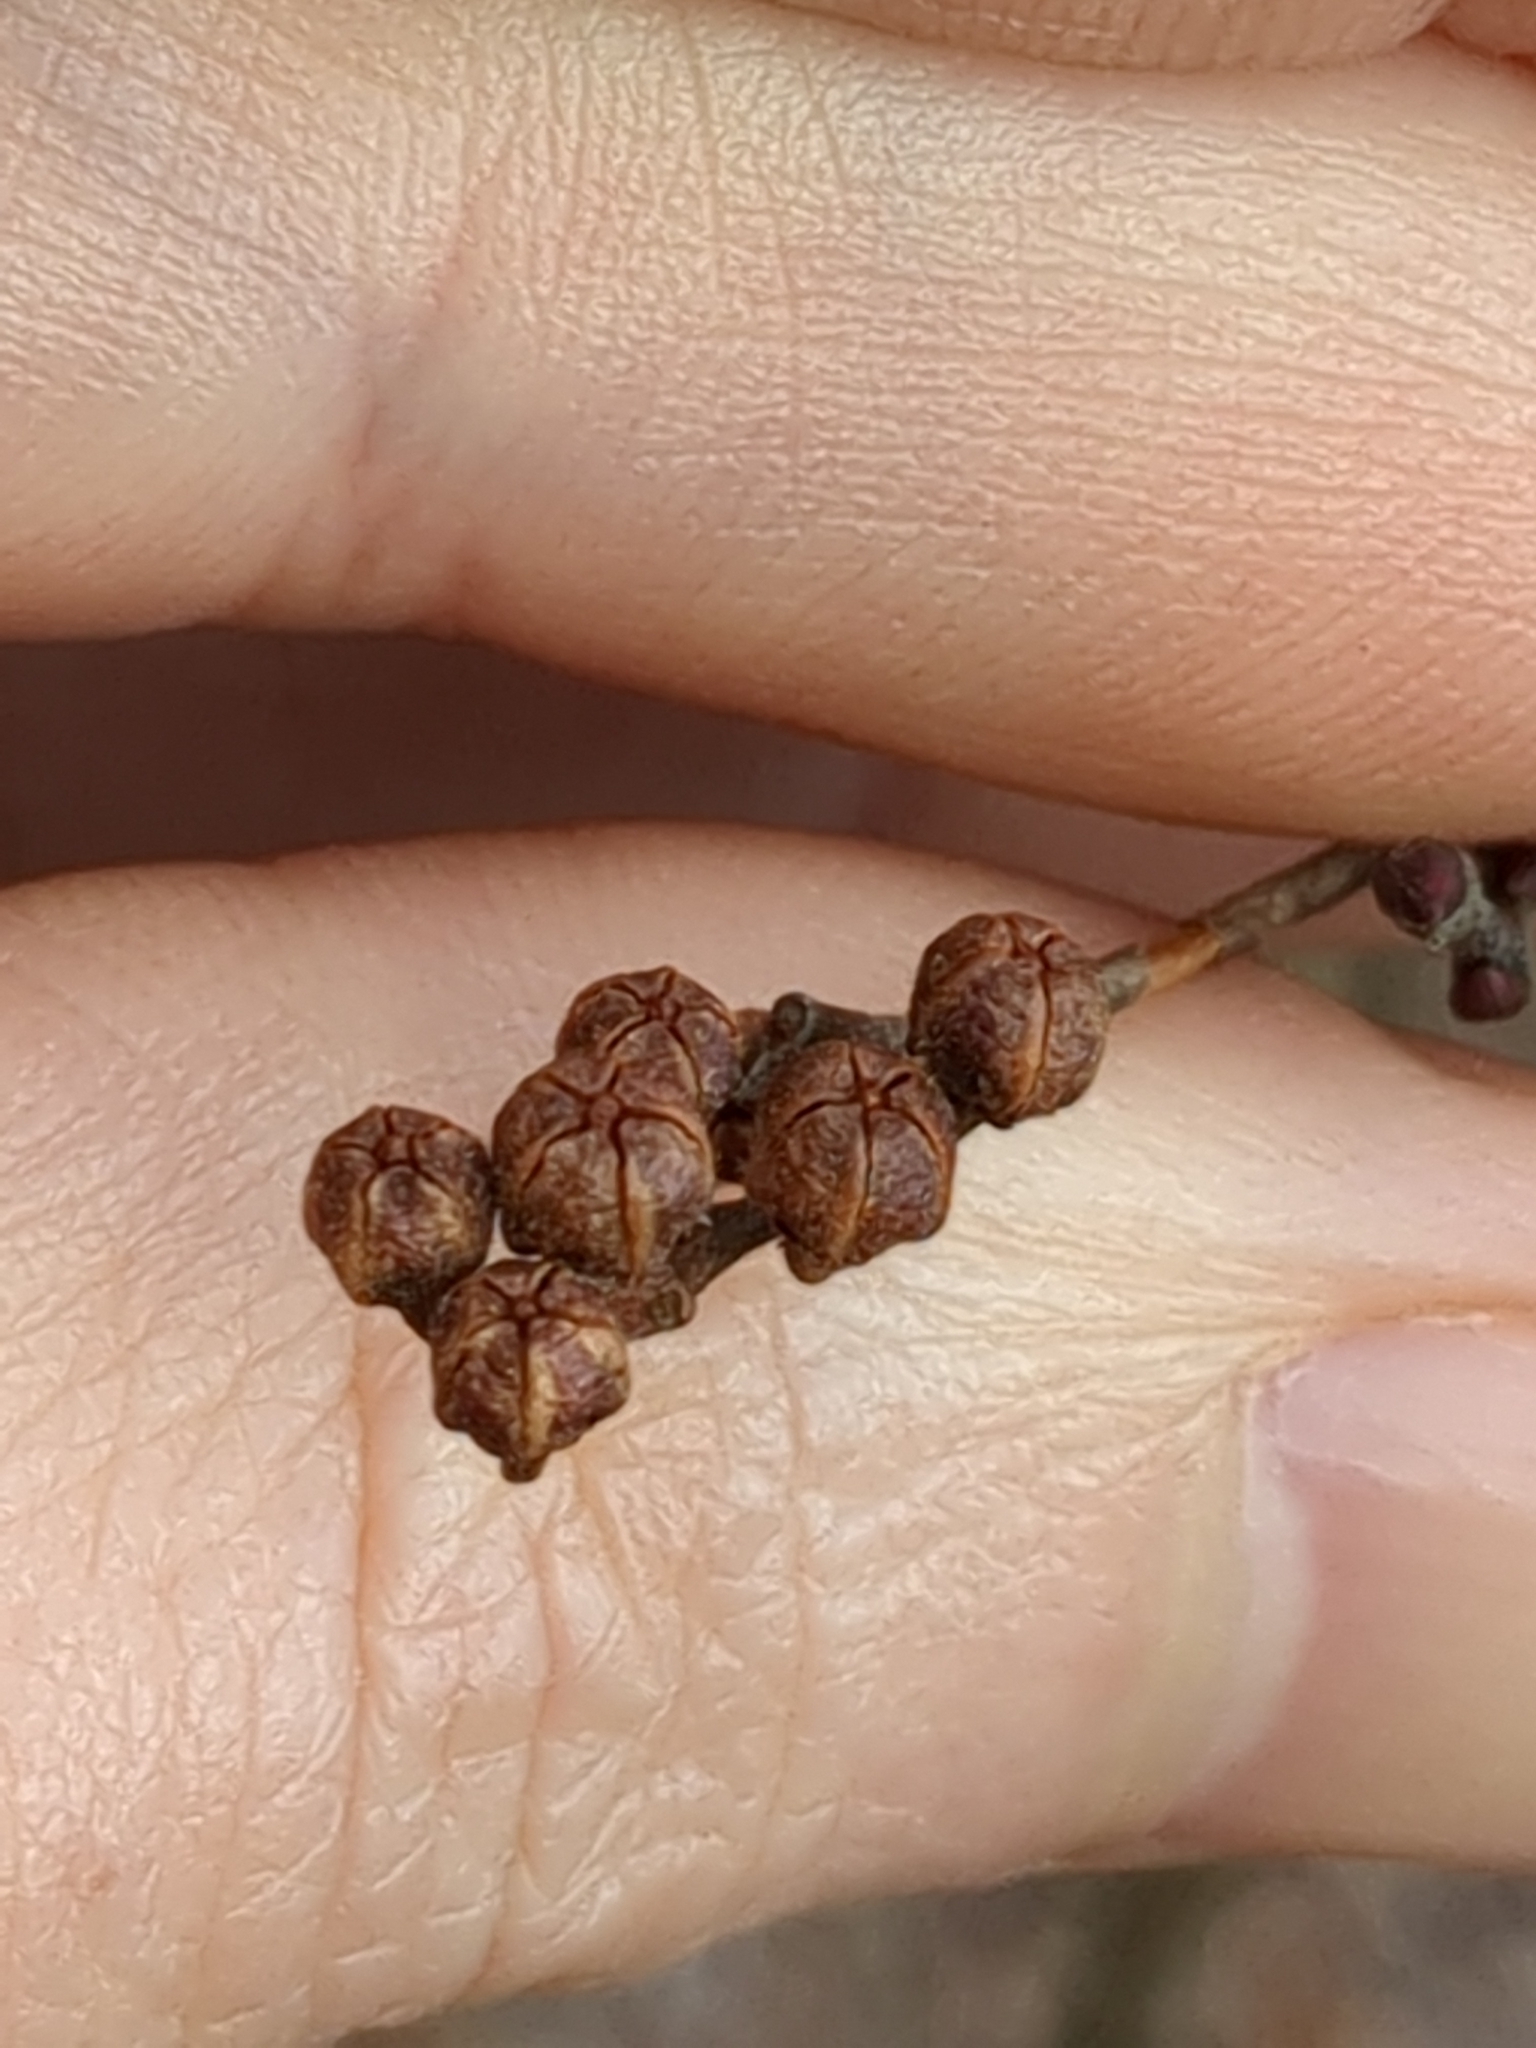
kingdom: Plantae
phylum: Tracheophyta
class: Magnoliopsida
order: Ericales
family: Ericaceae
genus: Lyonia
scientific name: Lyonia ligustrina
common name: Maleberry
